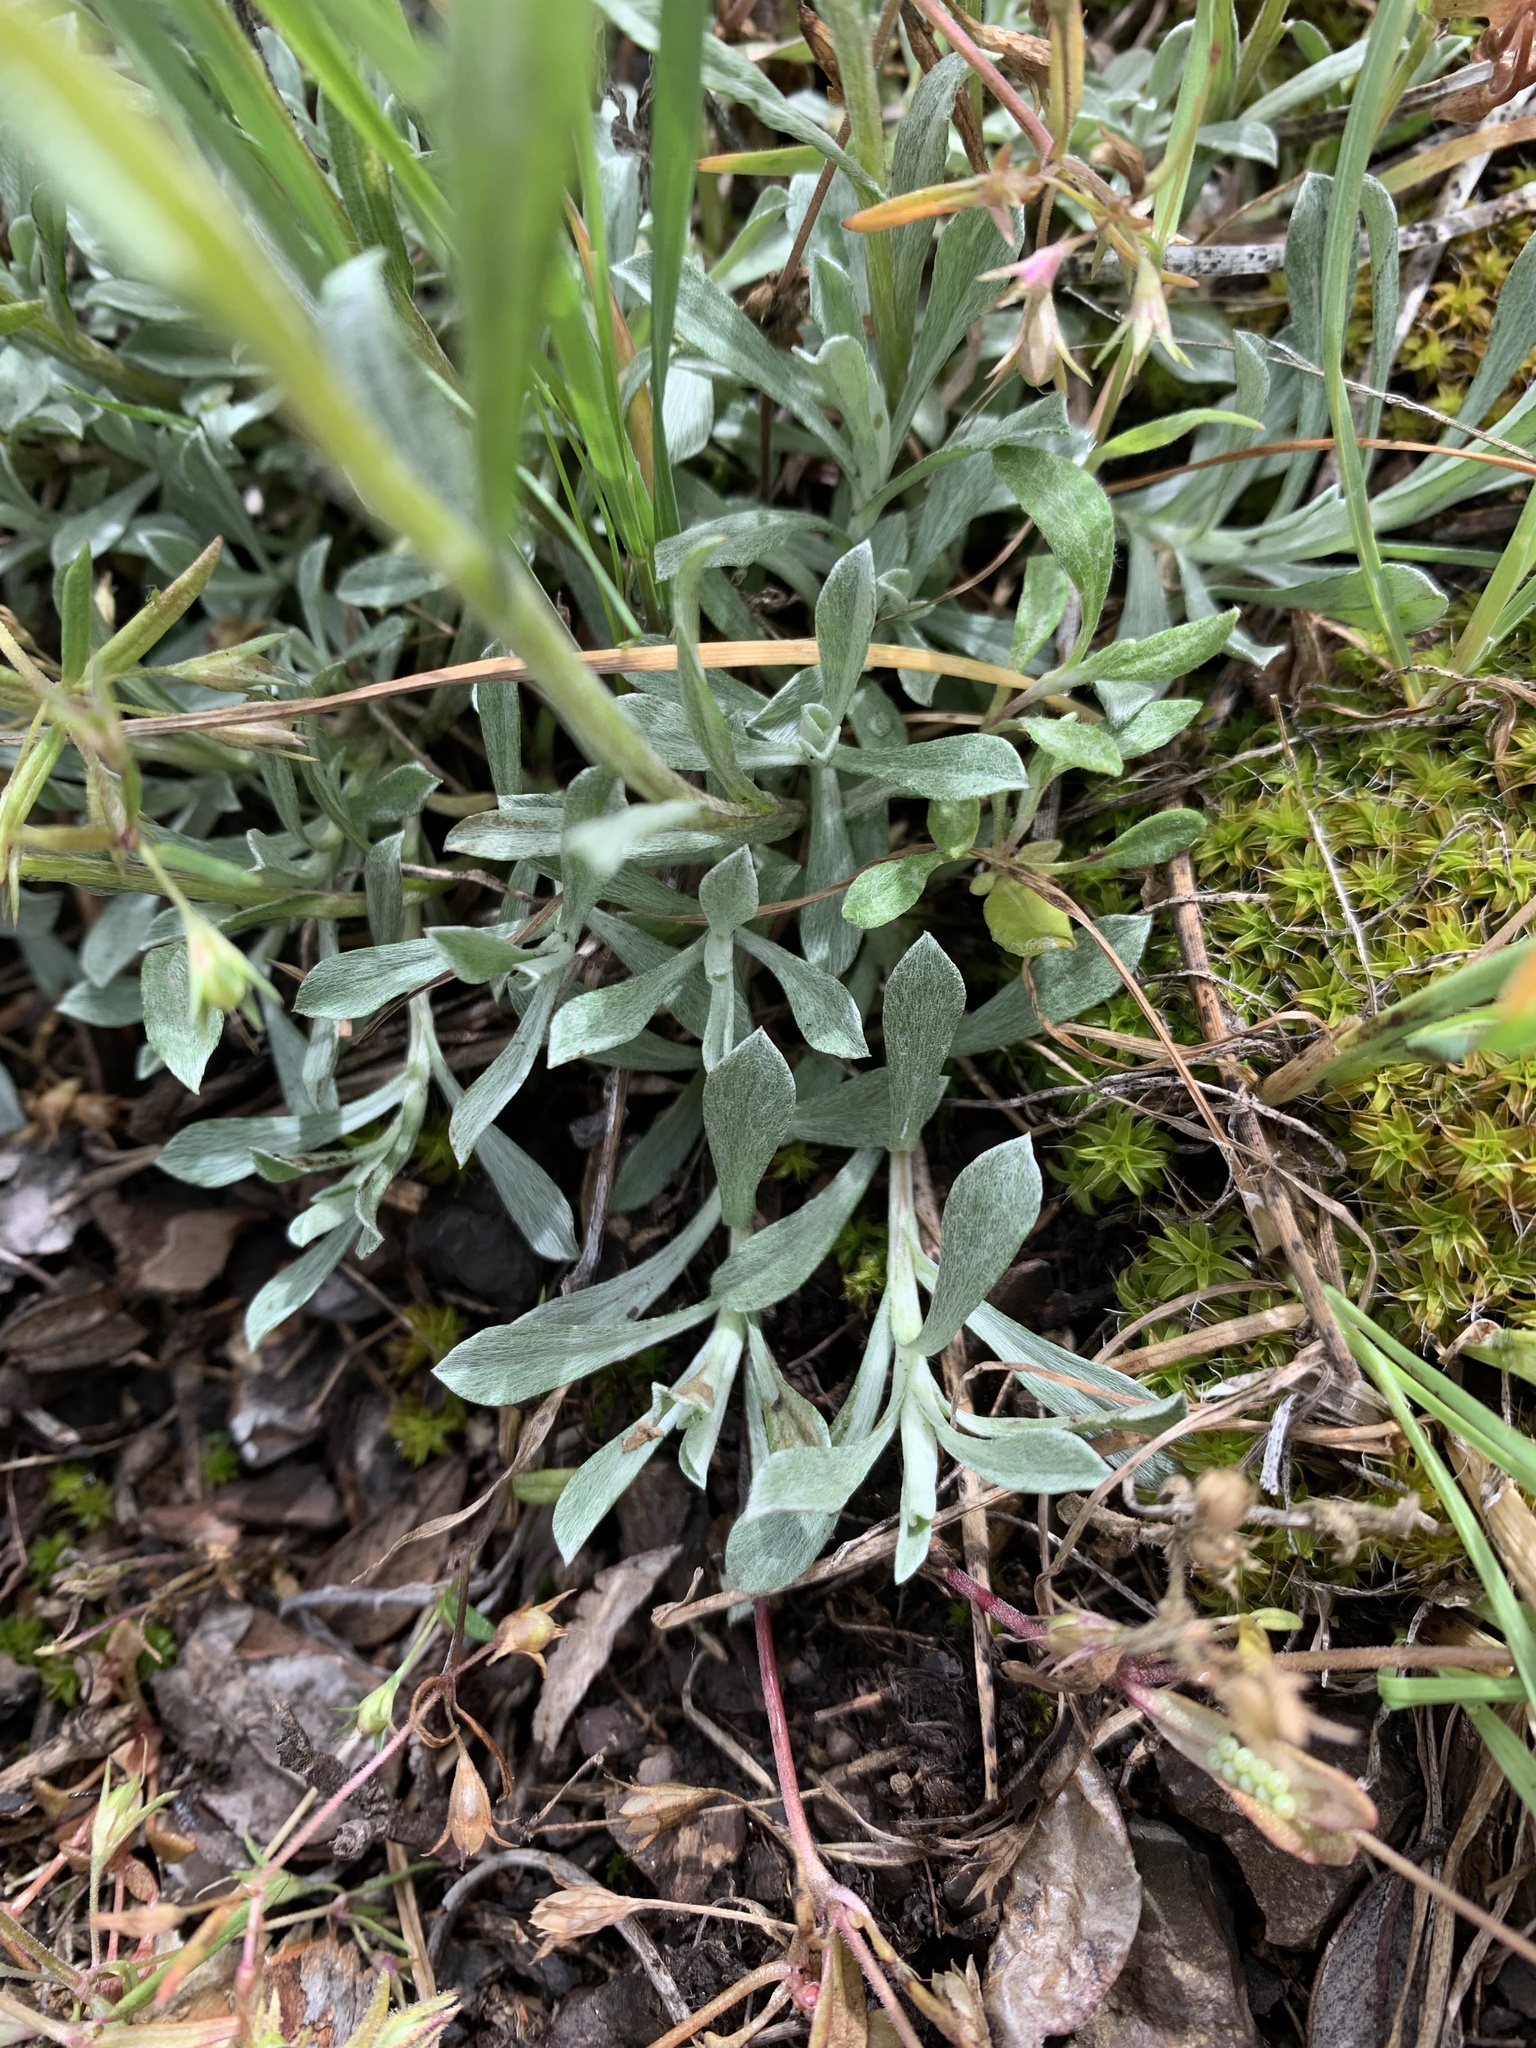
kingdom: Plantae
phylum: Tracheophyta
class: Magnoliopsida
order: Asterales
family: Asteraceae
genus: Antennaria
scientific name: Antennaria rosea
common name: Rosy pussytoes
